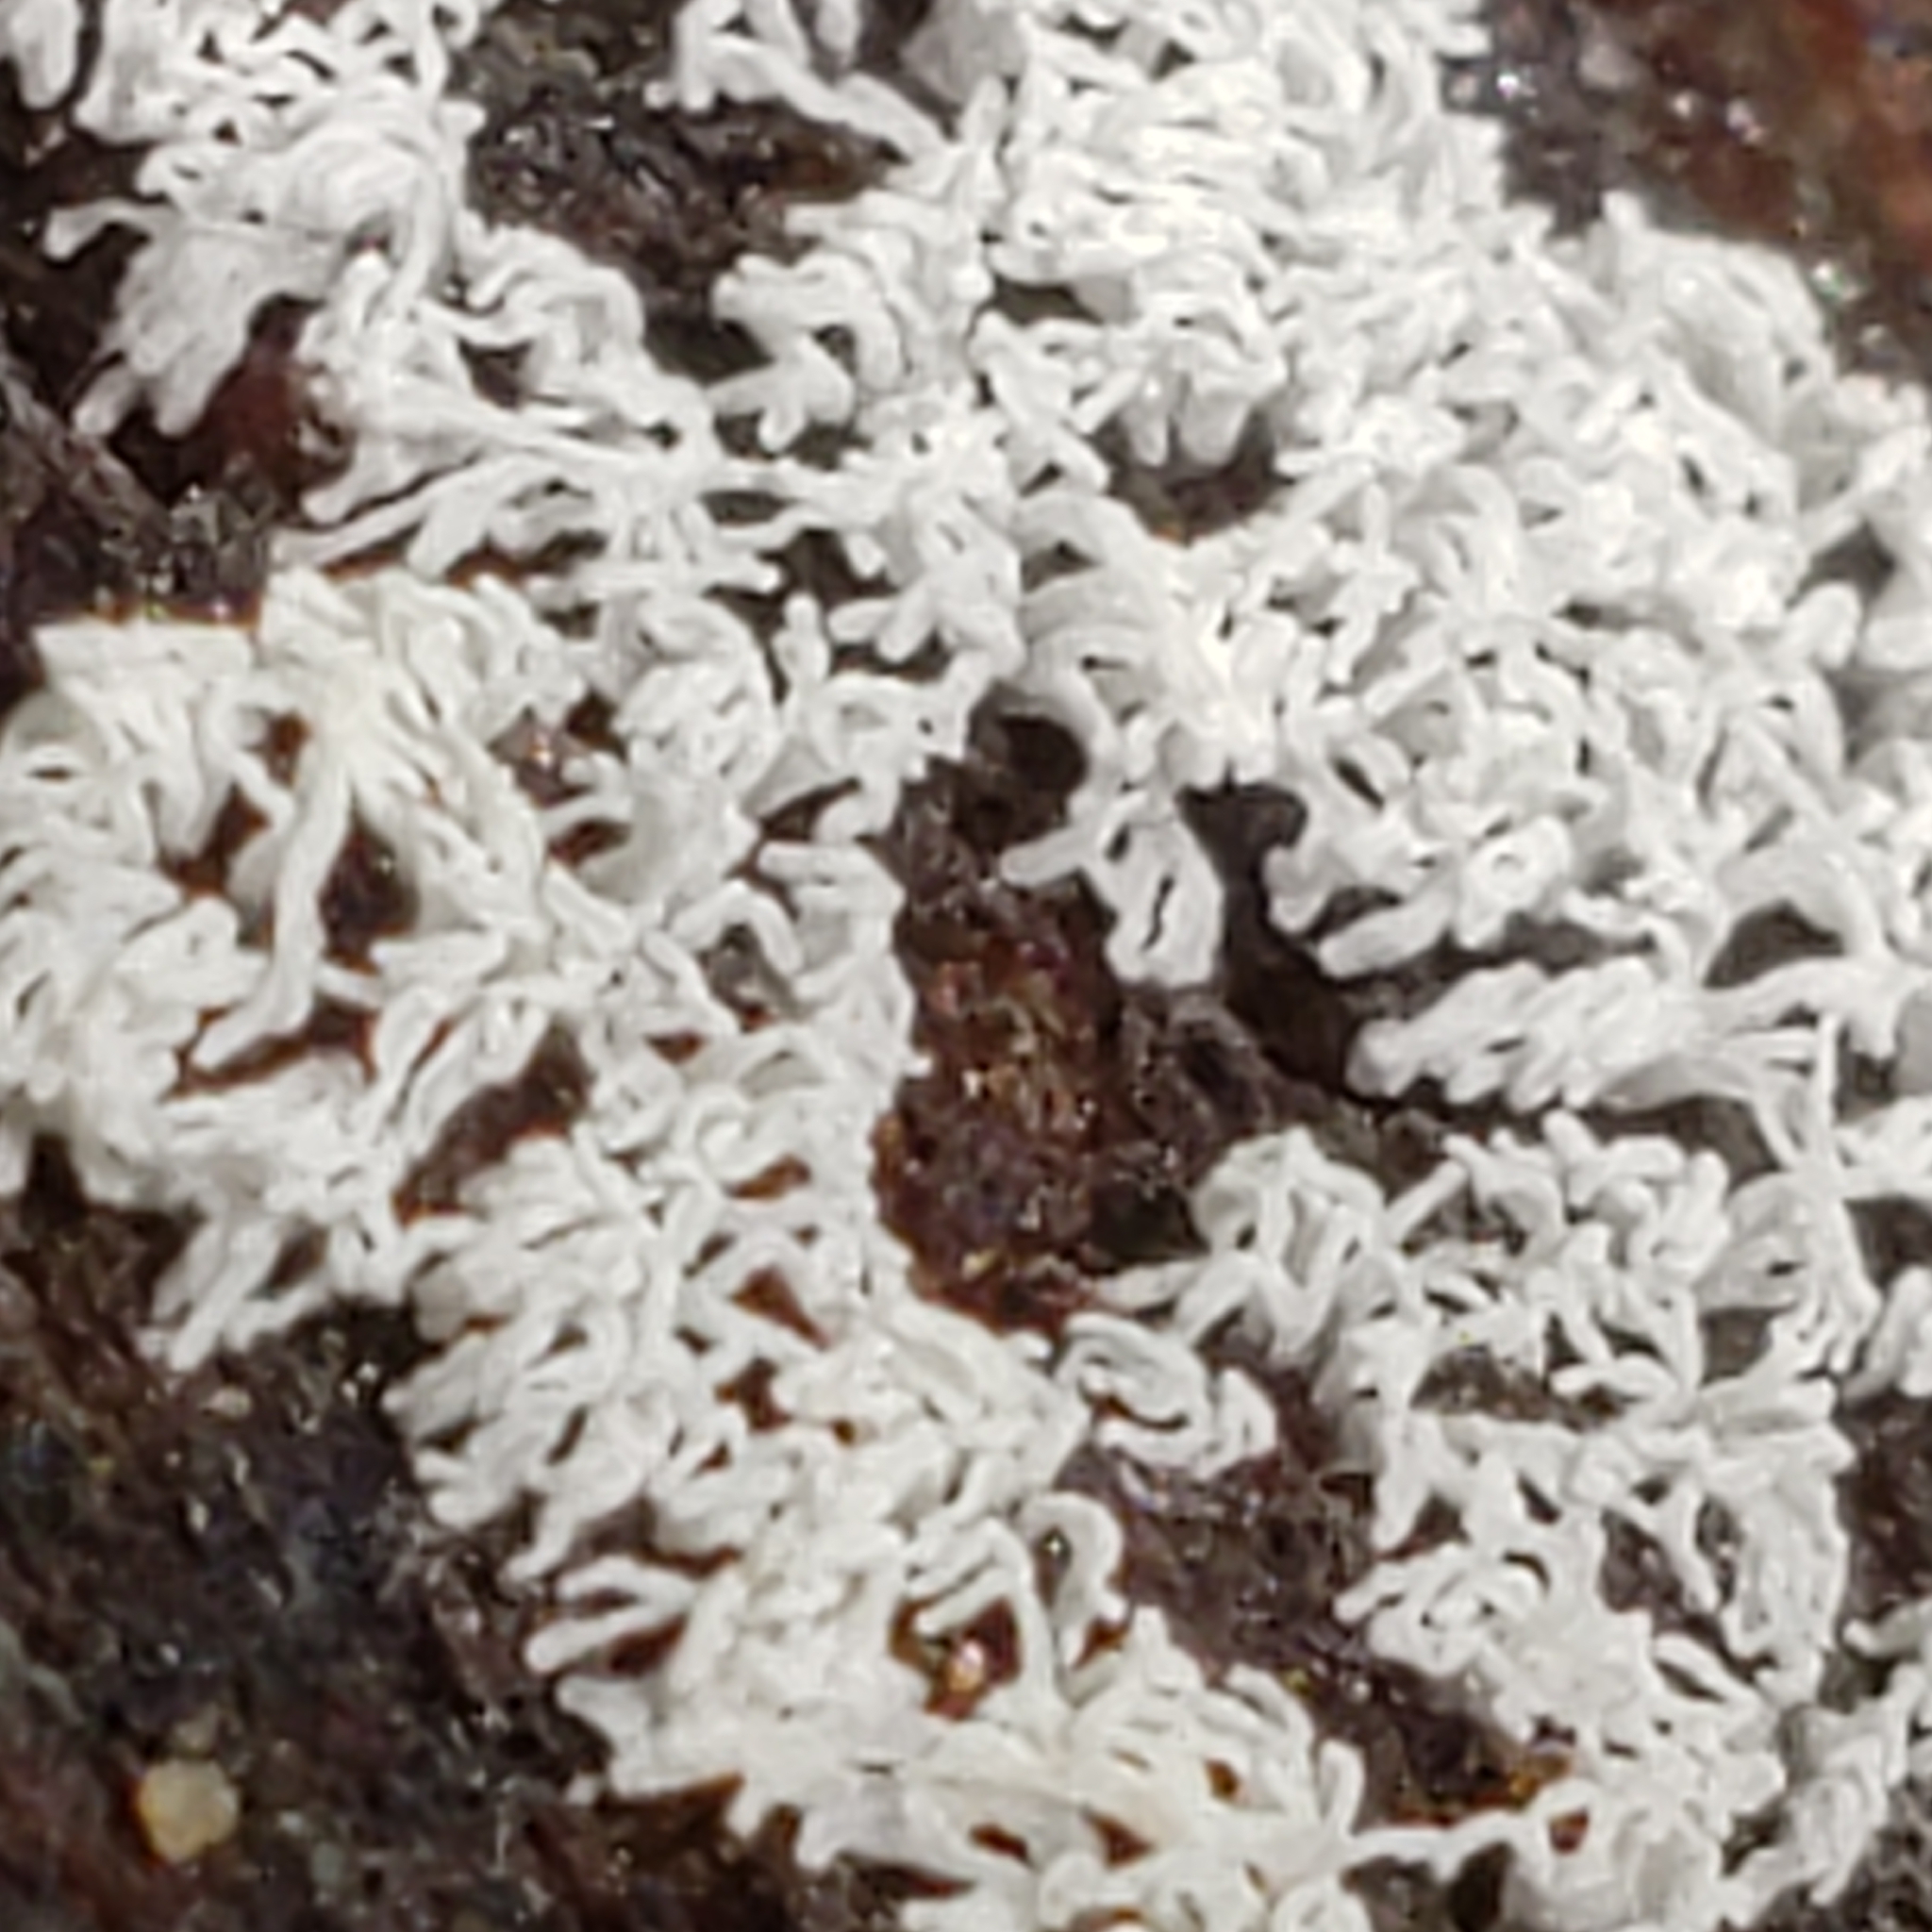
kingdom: Protozoa
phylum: Mycetozoa
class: Protosteliomycetes
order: Ceratiomyxales
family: Ceratiomyxaceae
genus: Ceratiomyxa
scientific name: Ceratiomyxa fruticulosa
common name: Honeycomb coral slime mold
